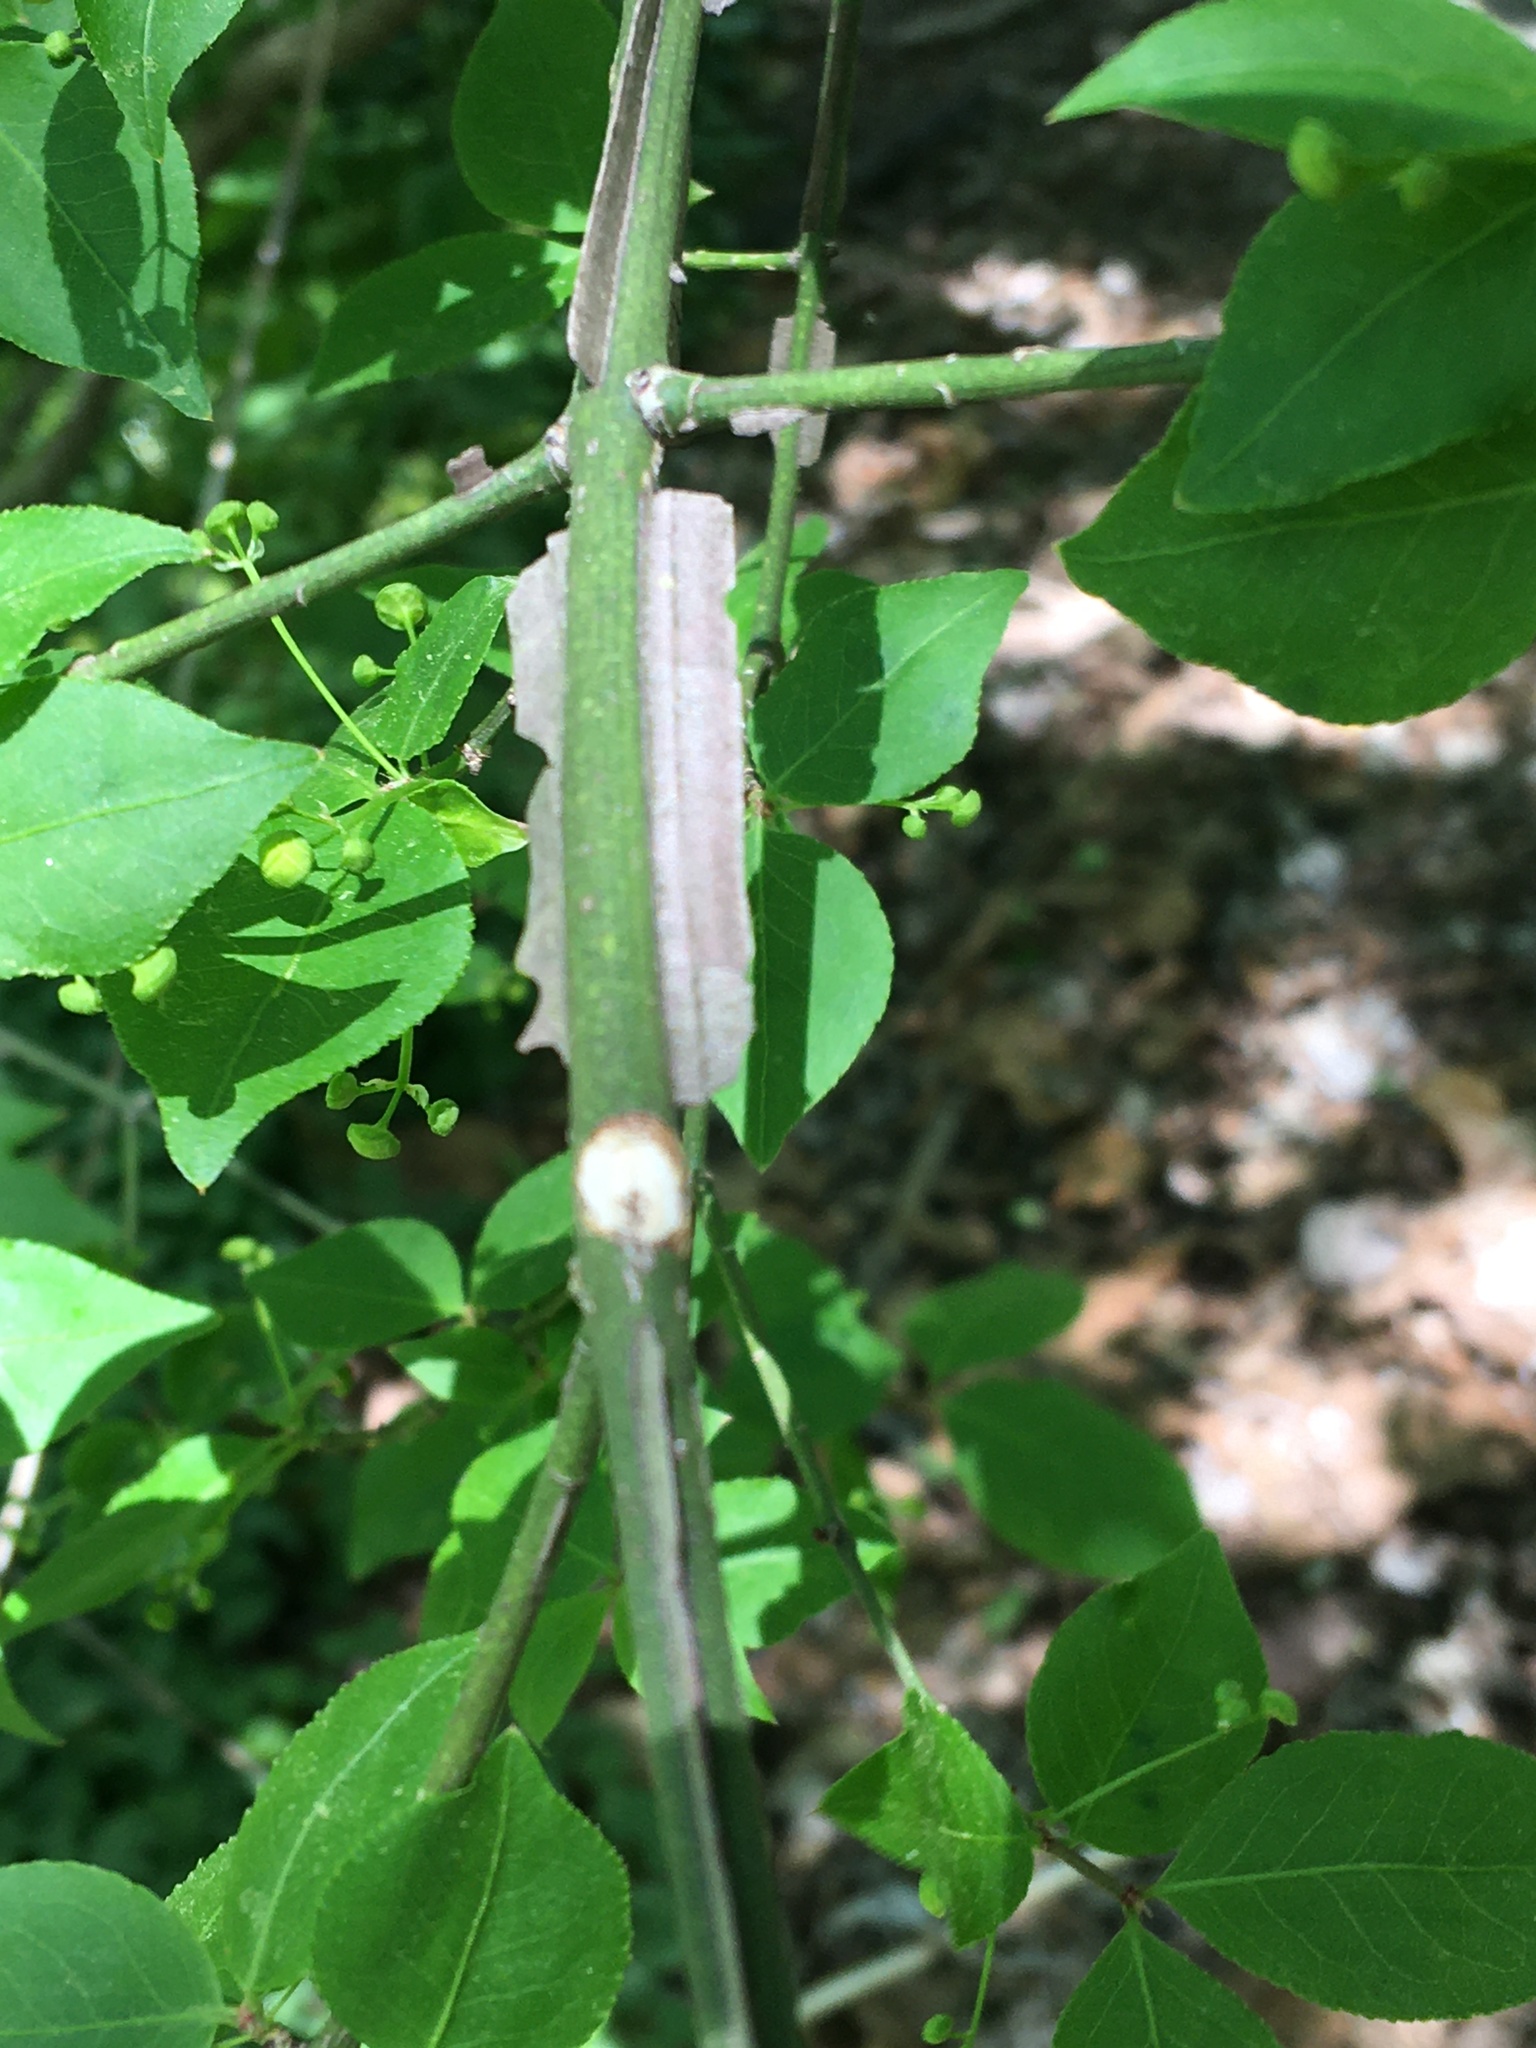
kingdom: Plantae
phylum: Tracheophyta
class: Magnoliopsida
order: Celastrales
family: Celastraceae
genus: Euonymus
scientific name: Euonymus alatus
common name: Winged euonymus
